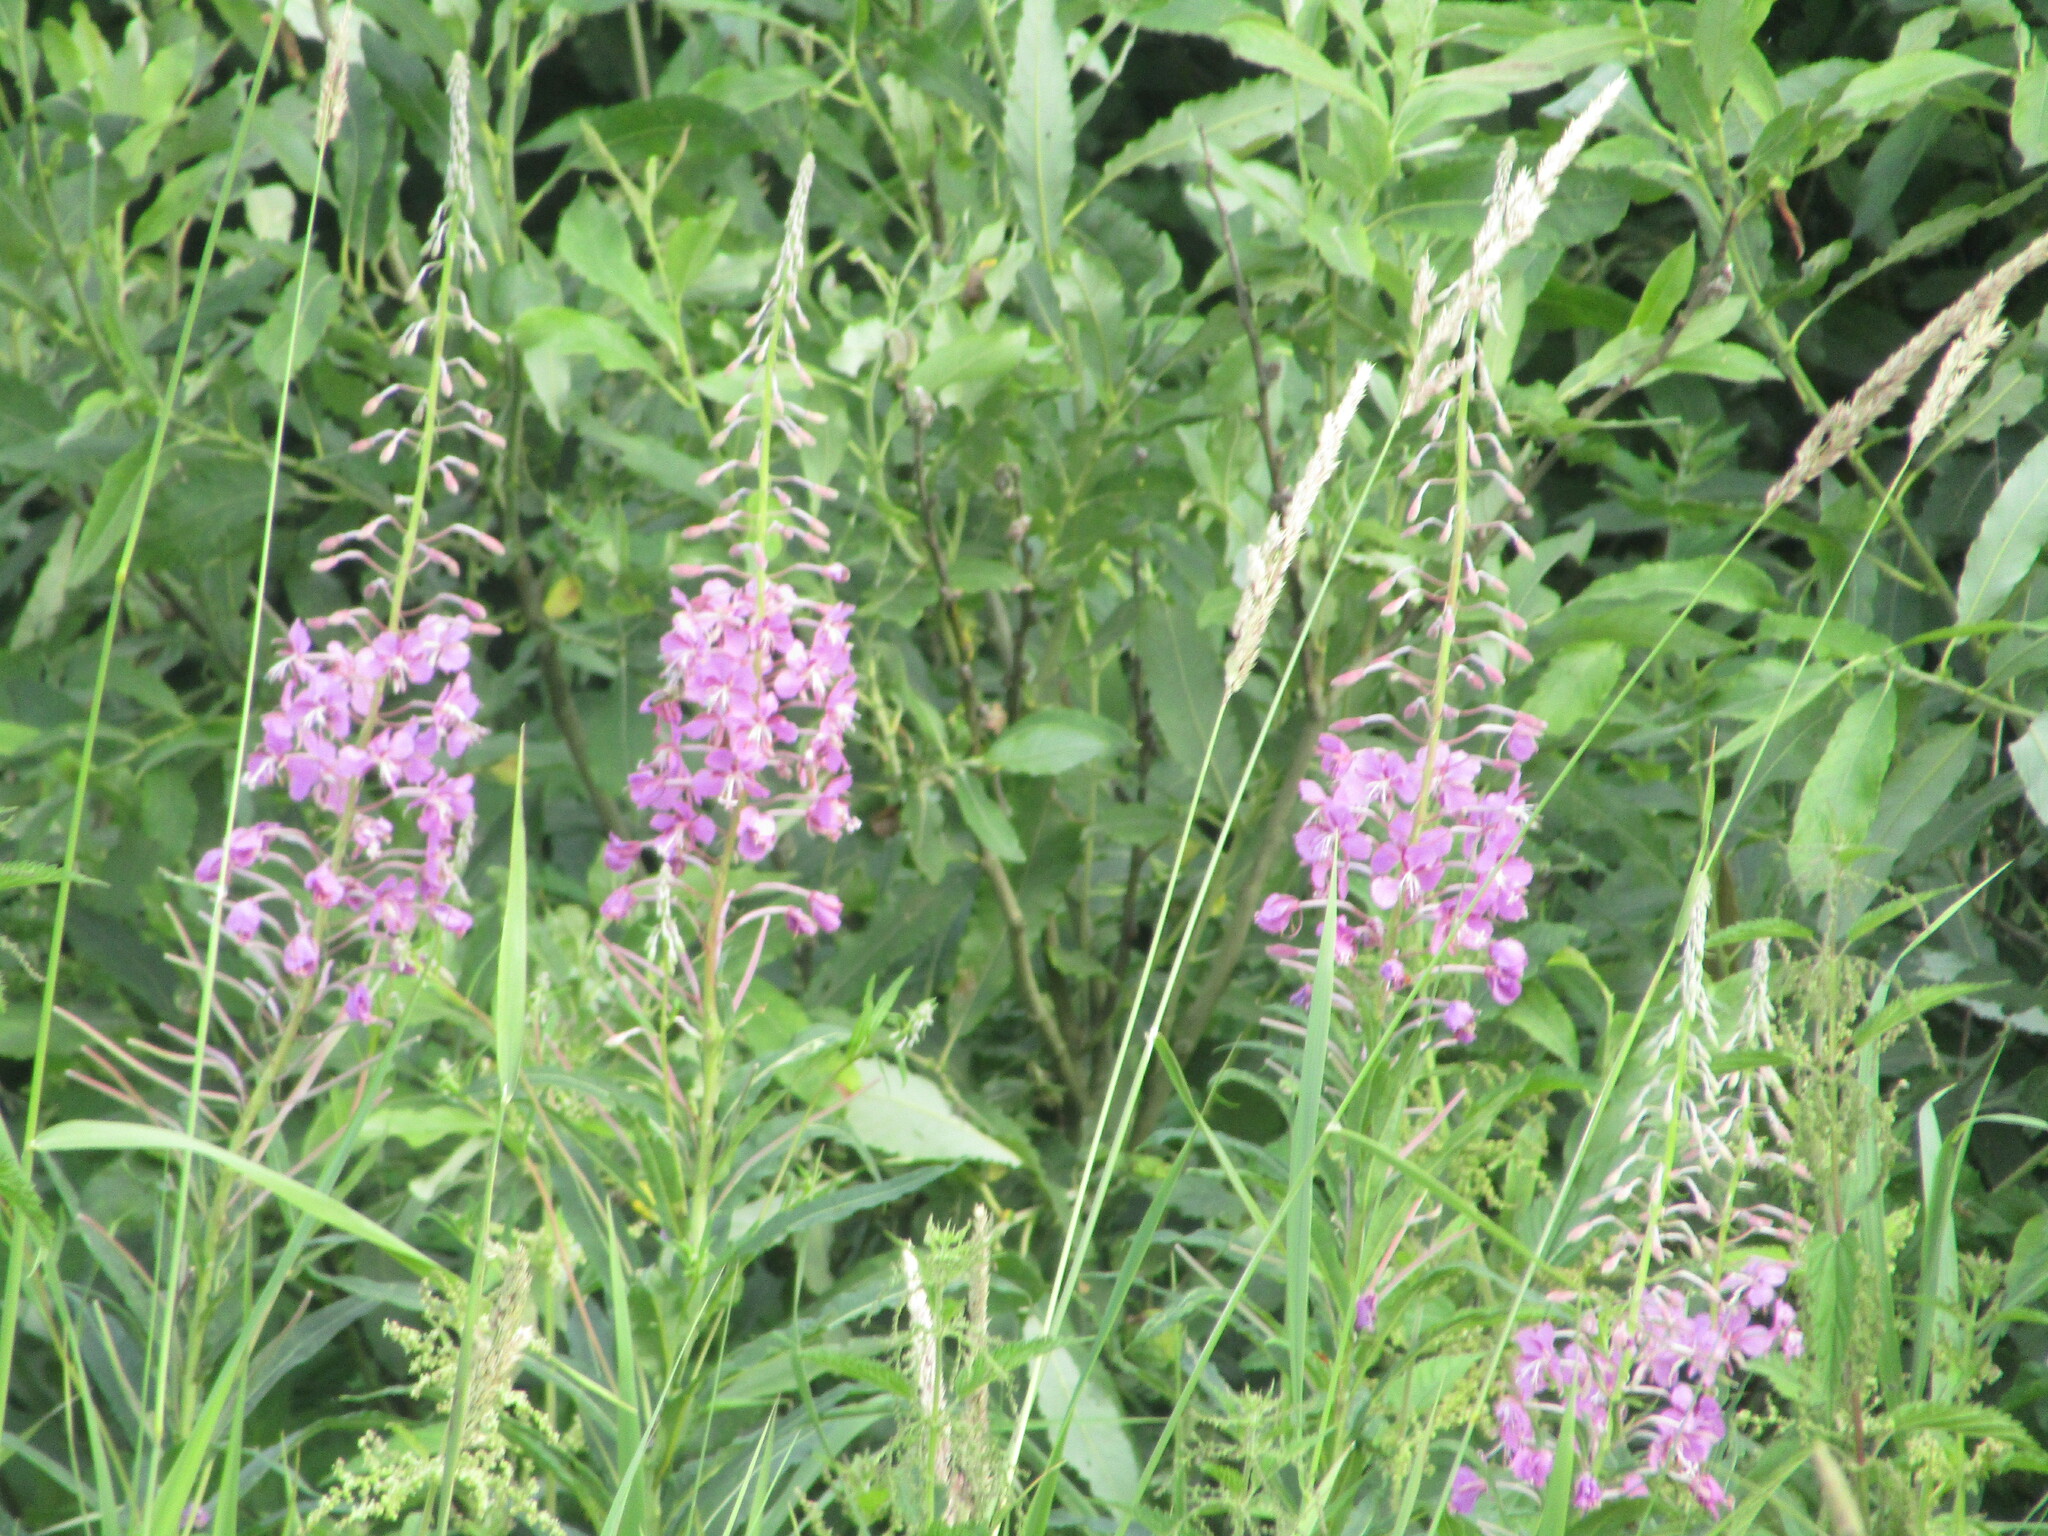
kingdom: Plantae
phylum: Tracheophyta
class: Magnoliopsida
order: Myrtales
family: Onagraceae
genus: Chamaenerion
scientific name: Chamaenerion angustifolium
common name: Fireweed
